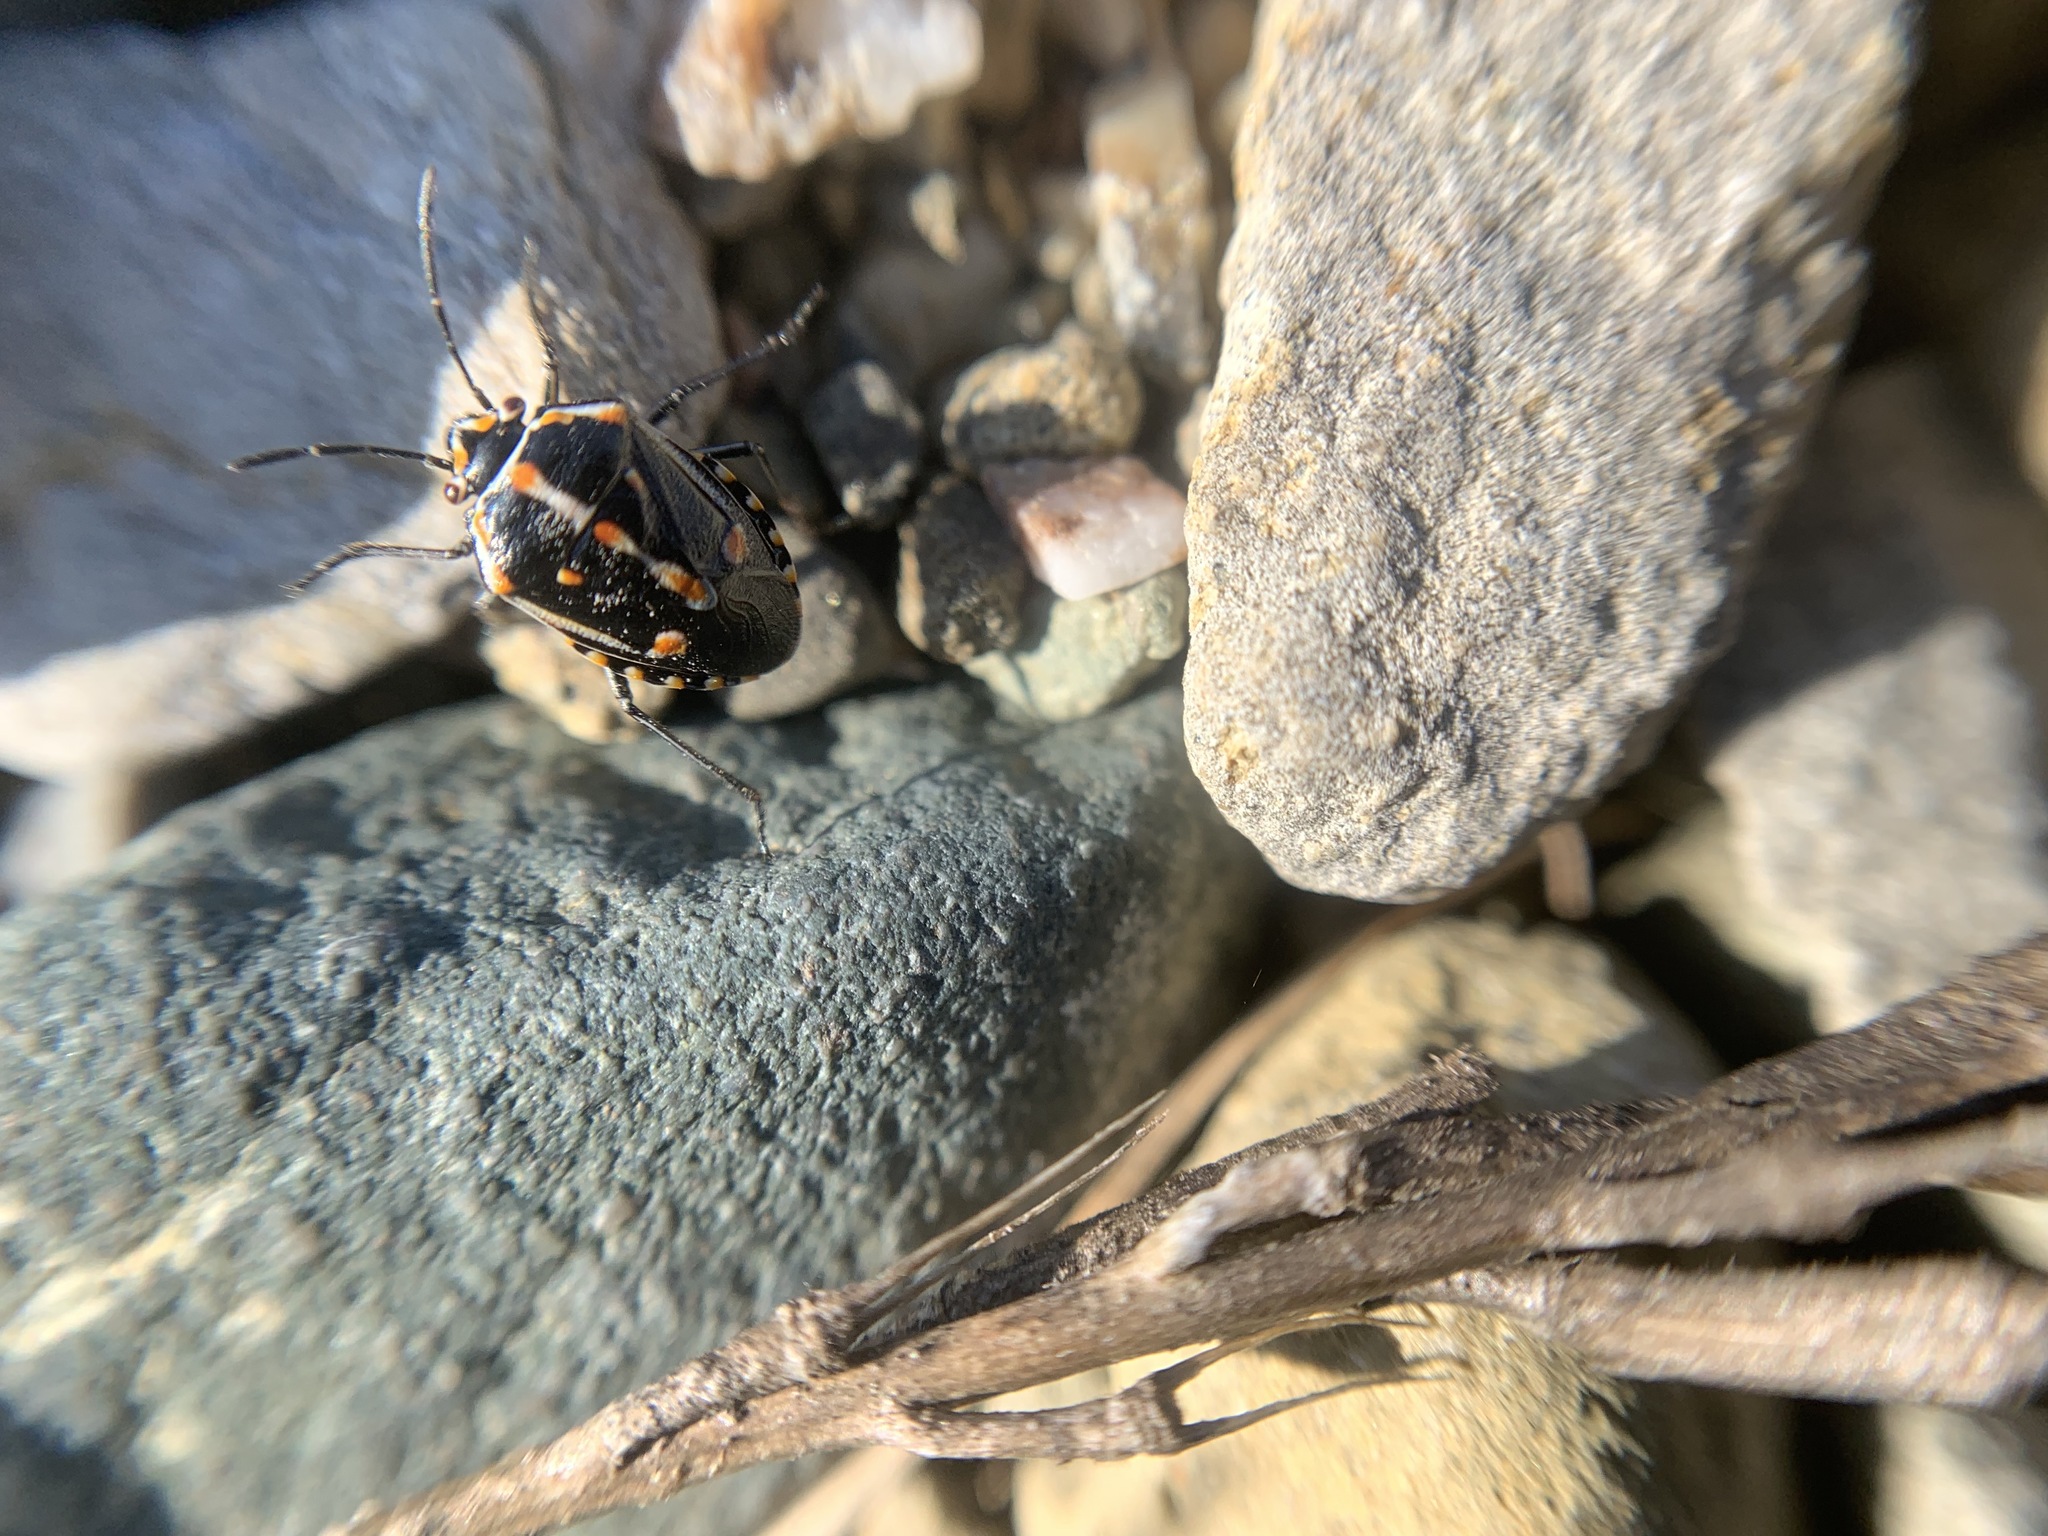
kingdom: Animalia
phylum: Arthropoda
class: Insecta
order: Hemiptera
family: Pentatomidae
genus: Bagrada
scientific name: Bagrada hilaris
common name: Bagrada bug
